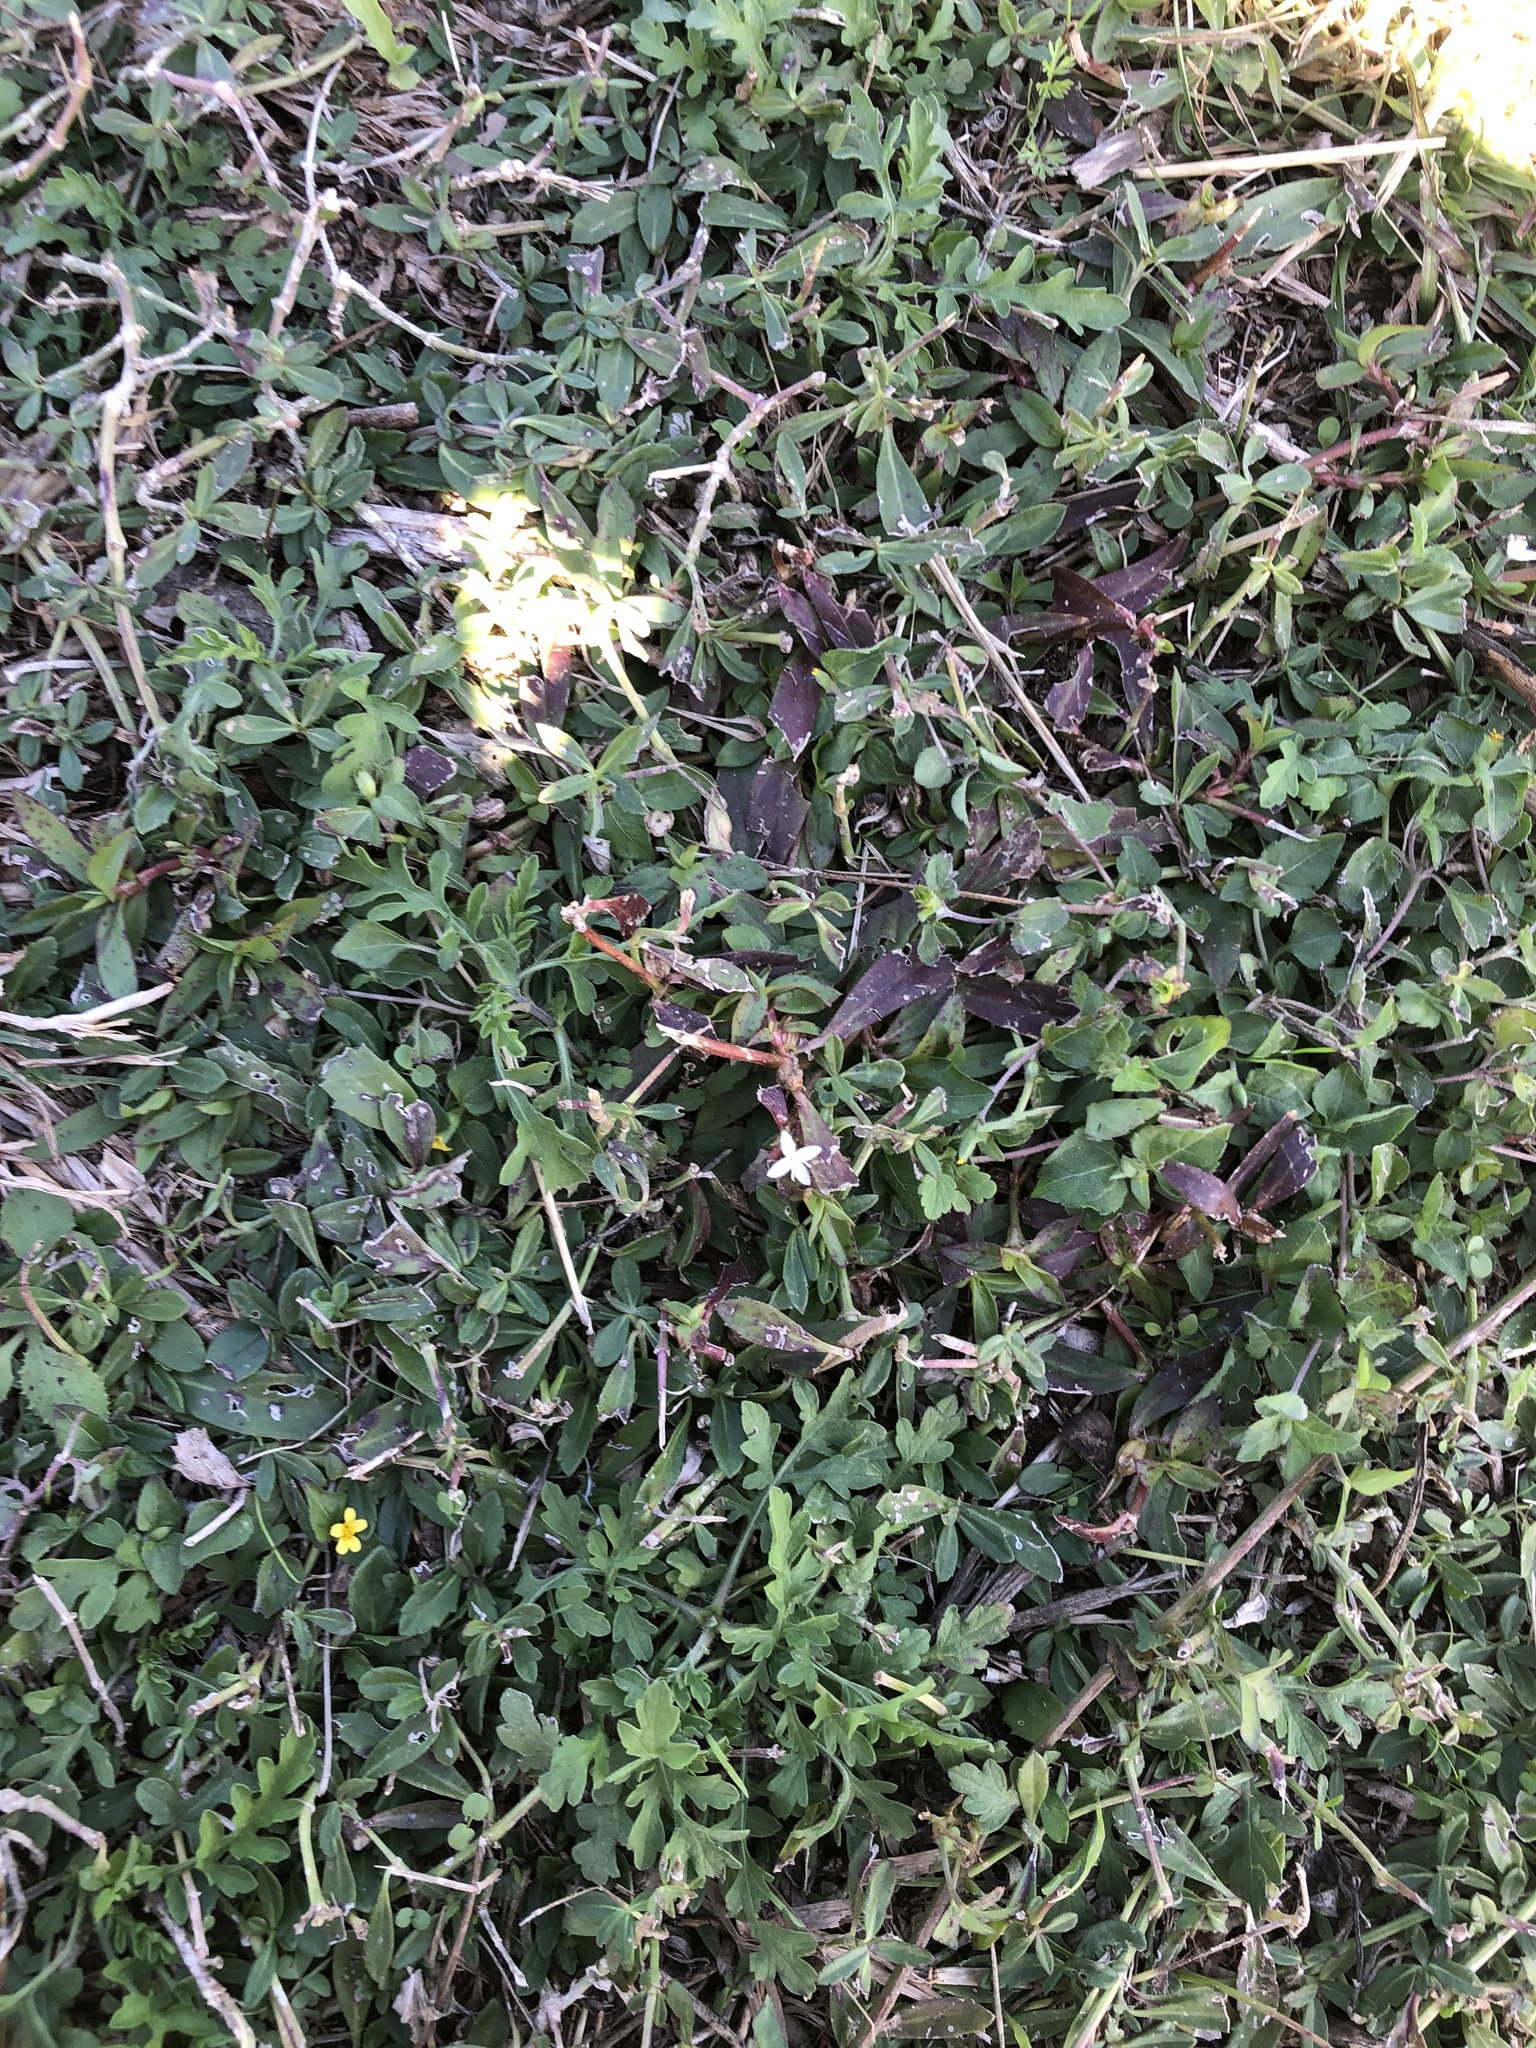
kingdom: Plantae
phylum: Tracheophyta
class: Magnoliopsida
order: Gentianales
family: Rubiaceae
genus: Diodia
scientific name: Diodia virginiana
